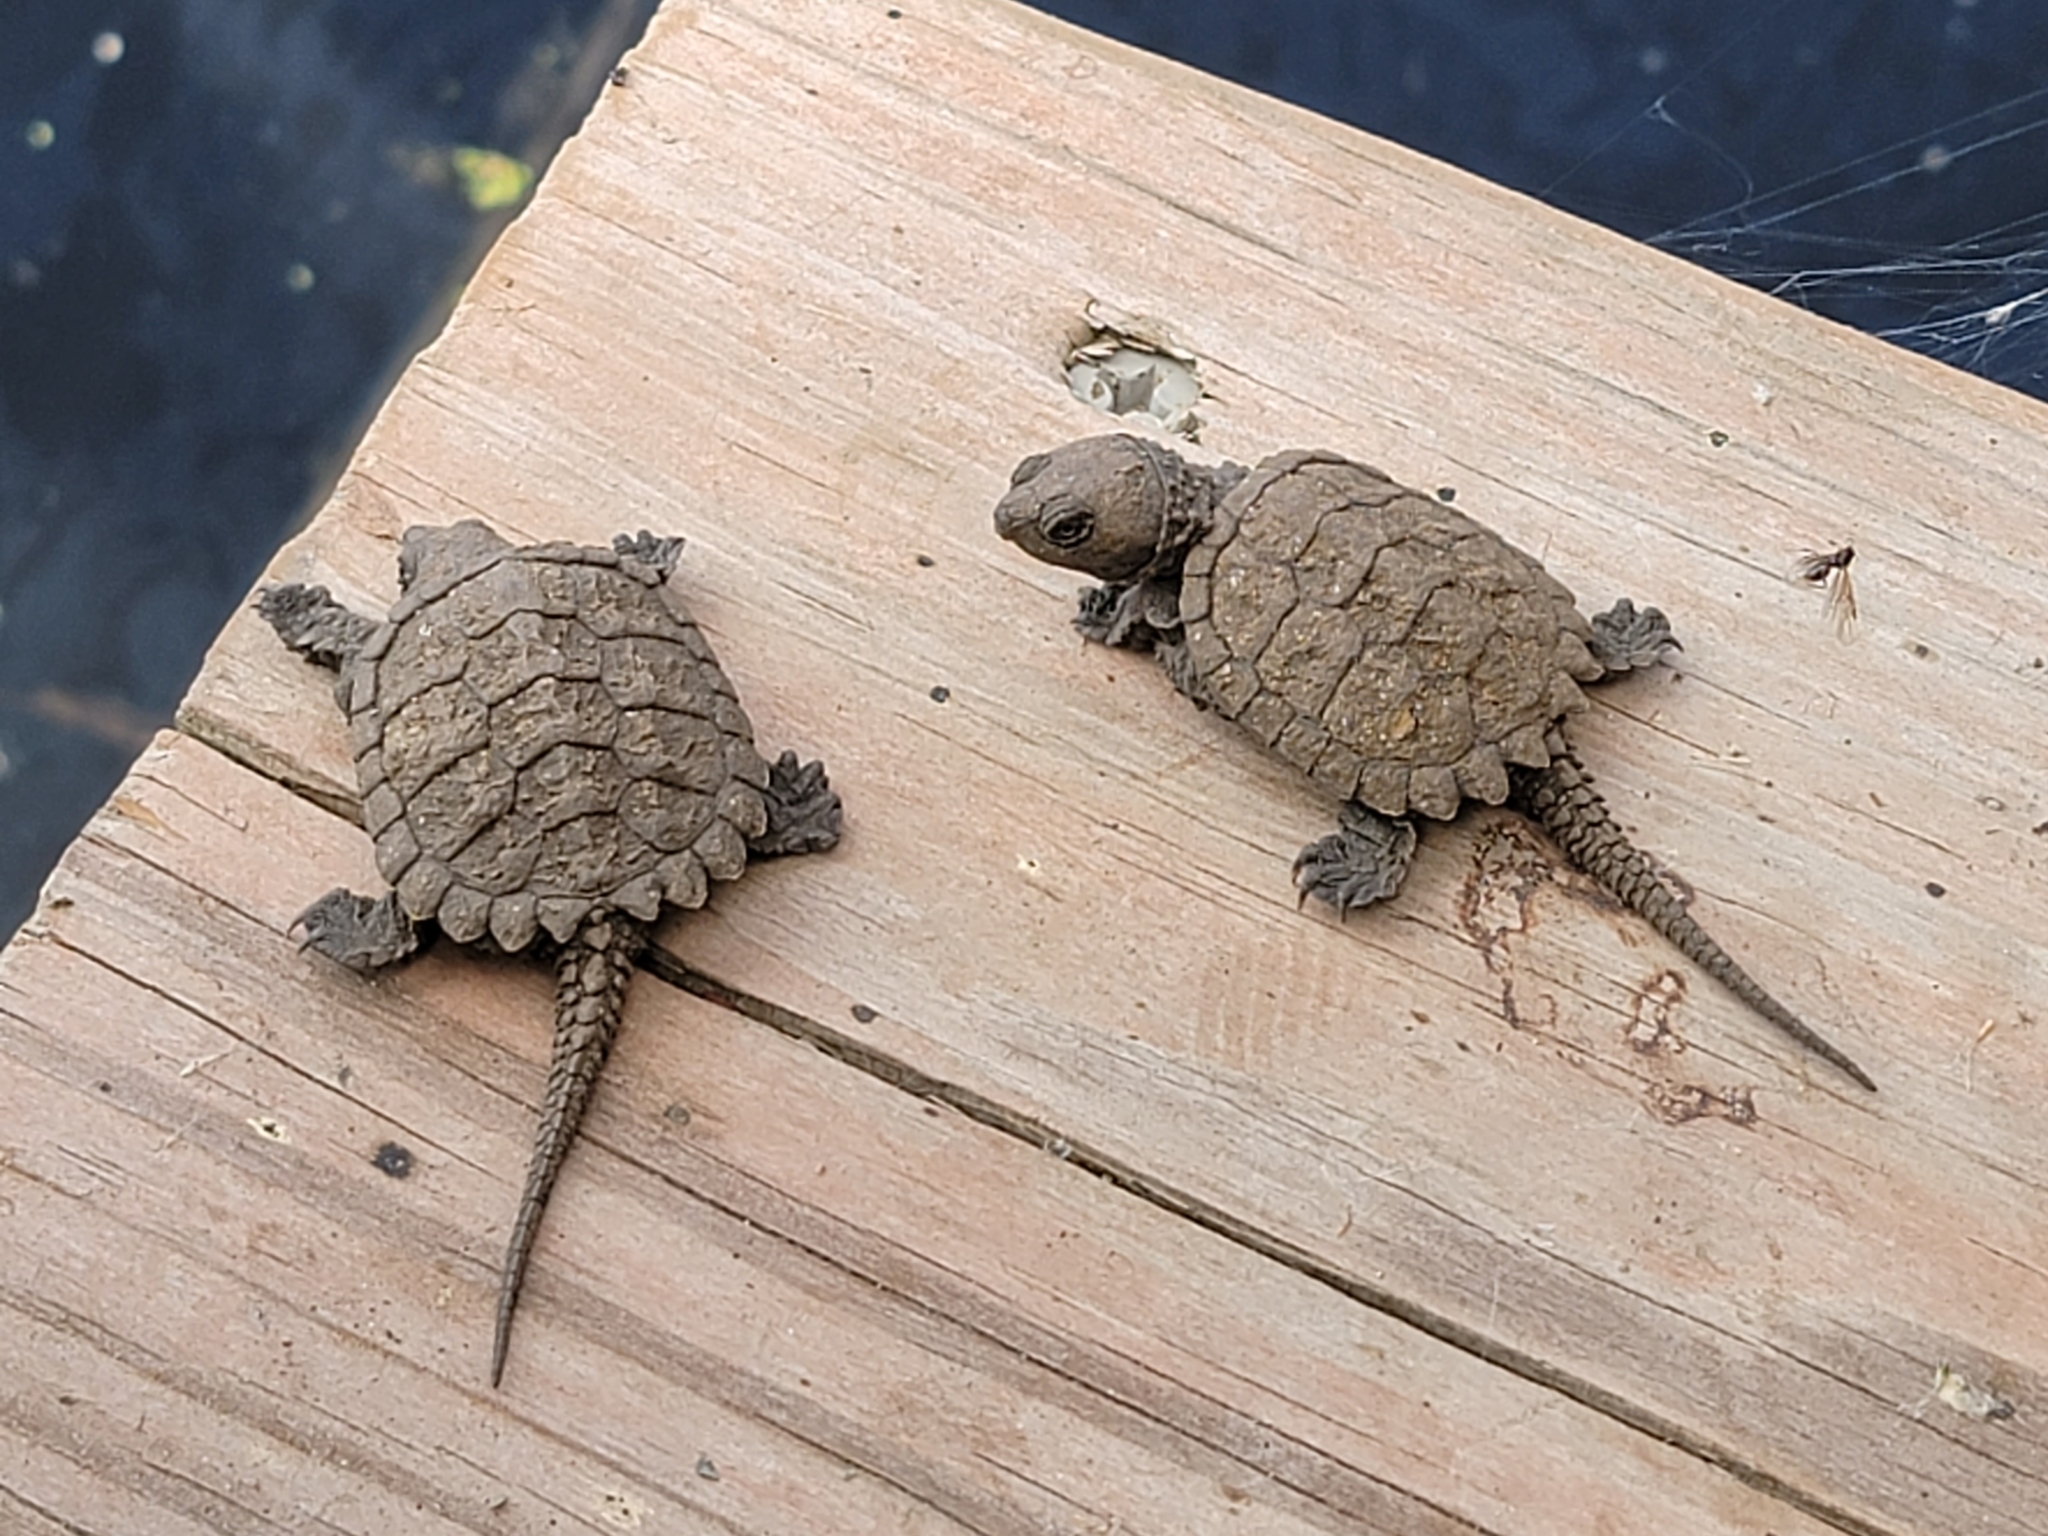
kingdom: Animalia
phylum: Chordata
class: Testudines
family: Chelydridae
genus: Chelydra
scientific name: Chelydra serpentina
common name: Common snapping turtle
